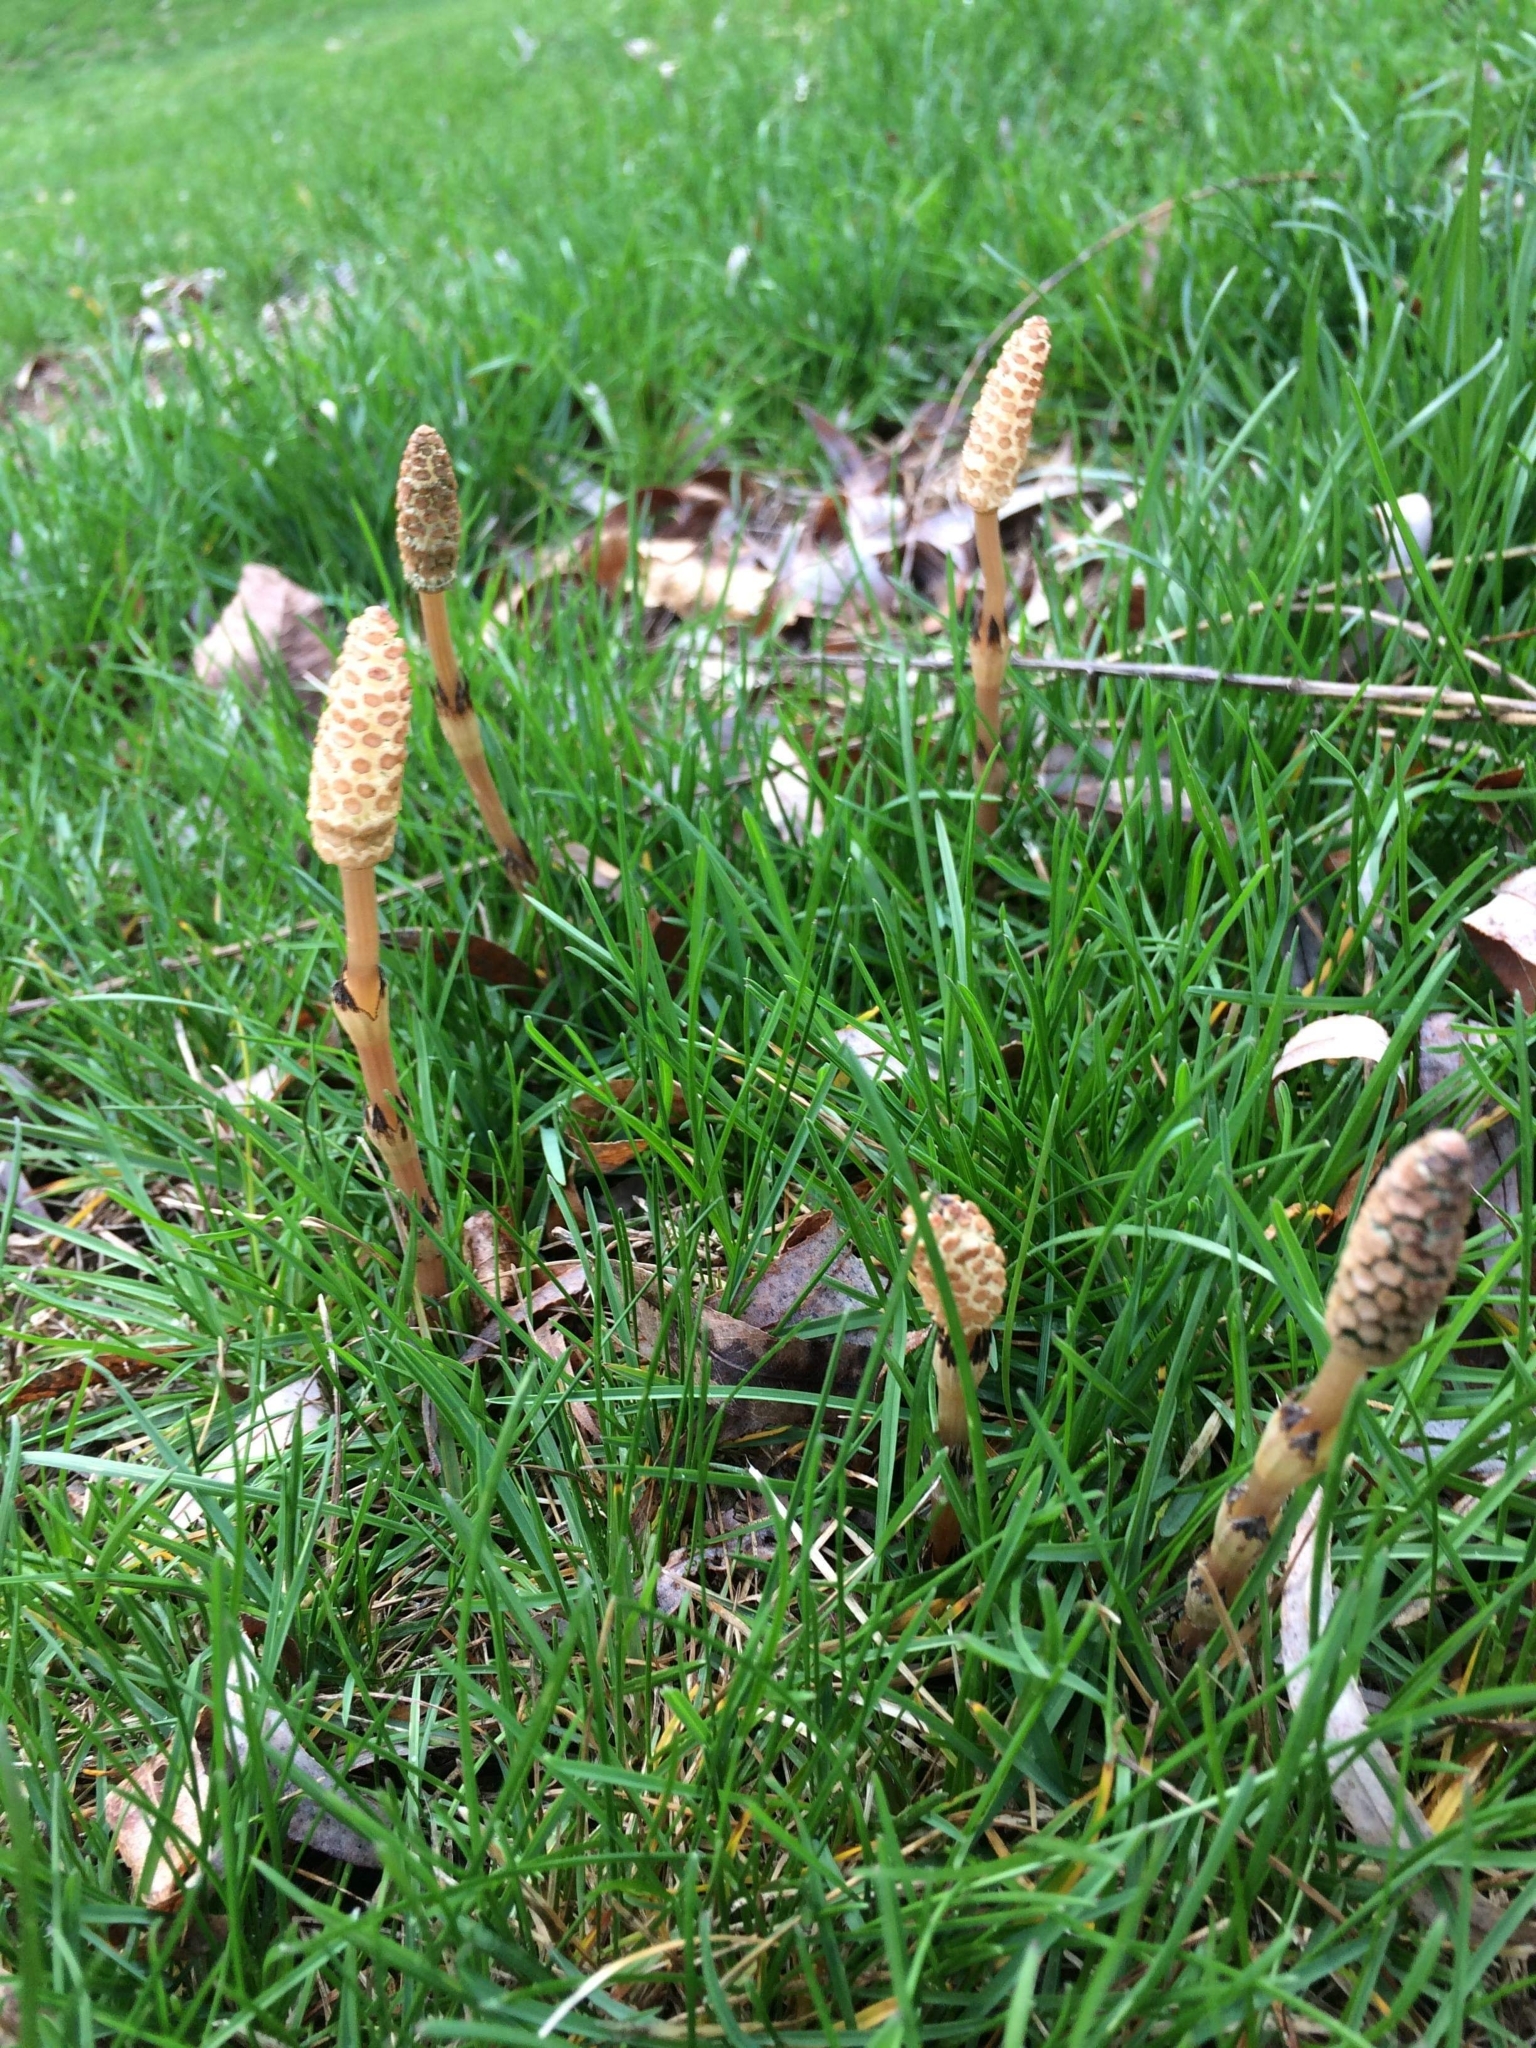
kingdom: Plantae
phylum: Tracheophyta
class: Polypodiopsida
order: Equisetales
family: Equisetaceae
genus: Equisetum
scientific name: Equisetum arvense
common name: Field horsetail
